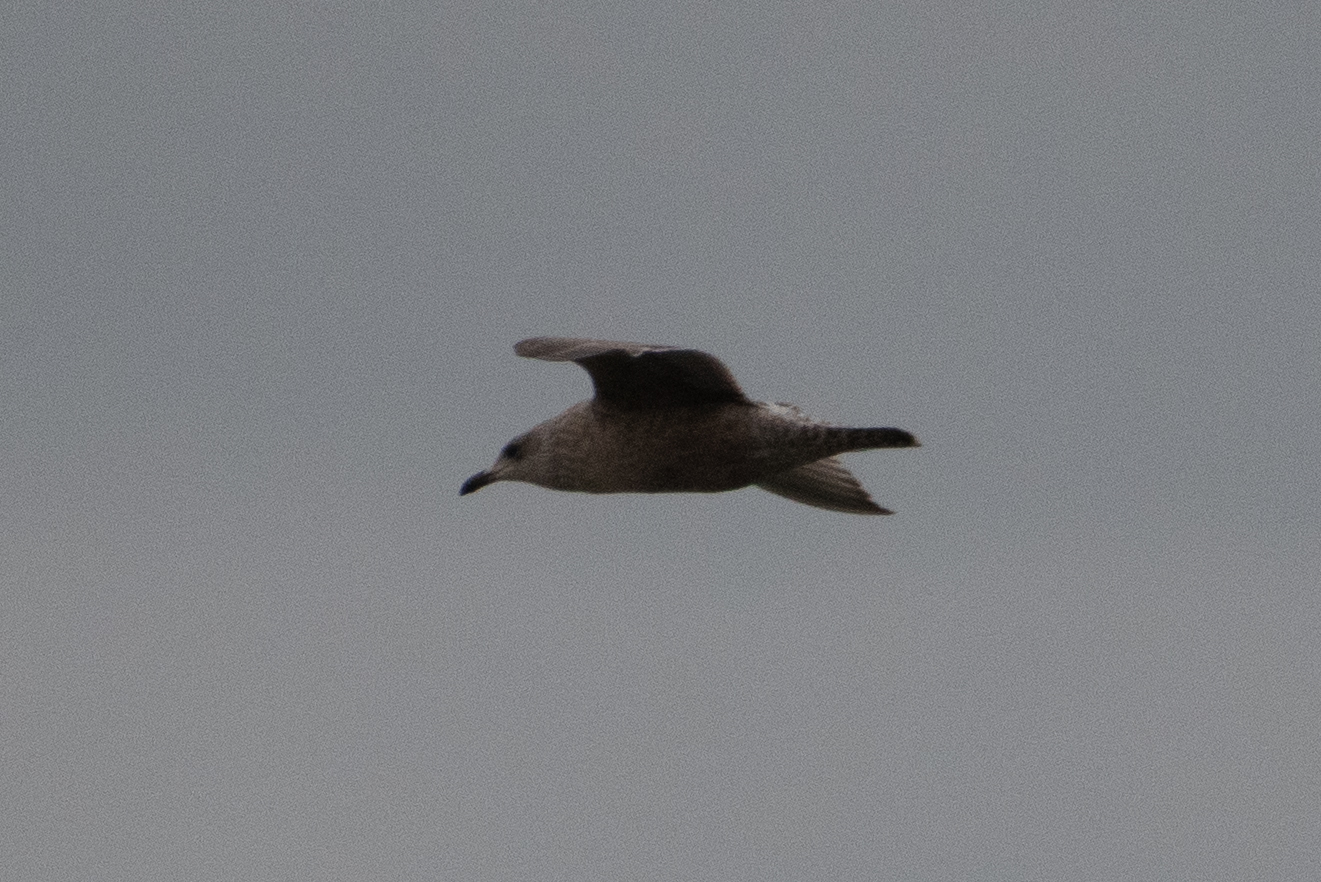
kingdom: Animalia
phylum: Chordata
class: Aves
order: Charadriiformes
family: Laridae
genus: Larus
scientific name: Larus glaucoides
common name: Iceland gull
